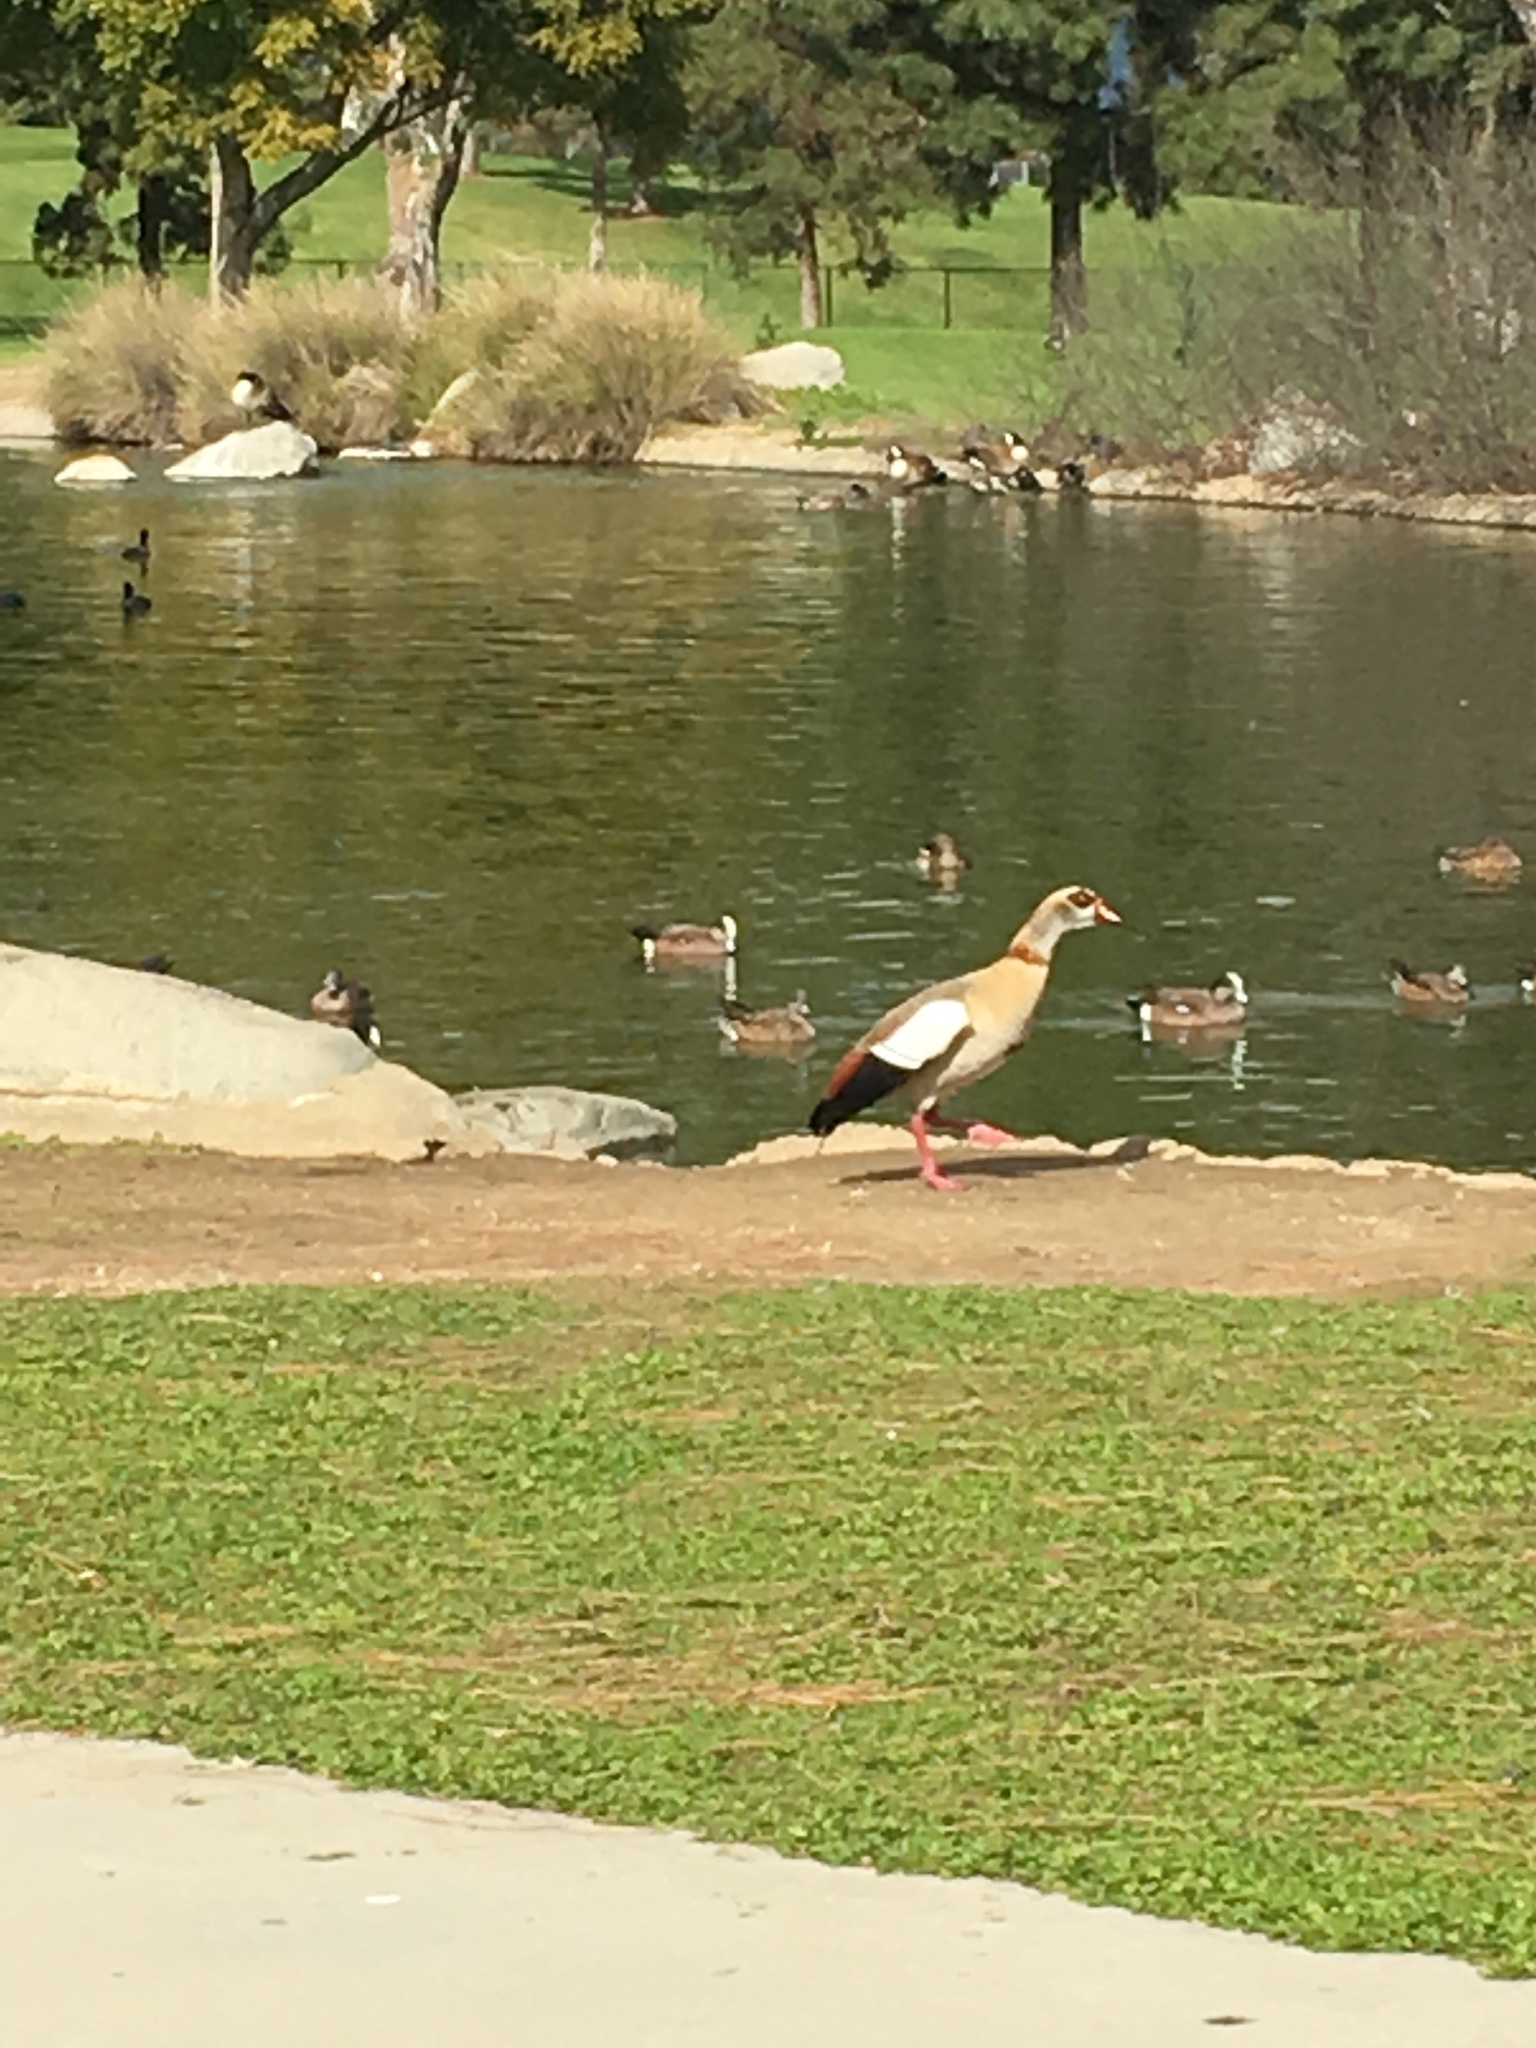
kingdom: Animalia
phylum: Chordata
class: Aves
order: Anseriformes
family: Anatidae
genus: Alopochen
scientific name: Alopochen aegyptiaca
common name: Egyptian goose
